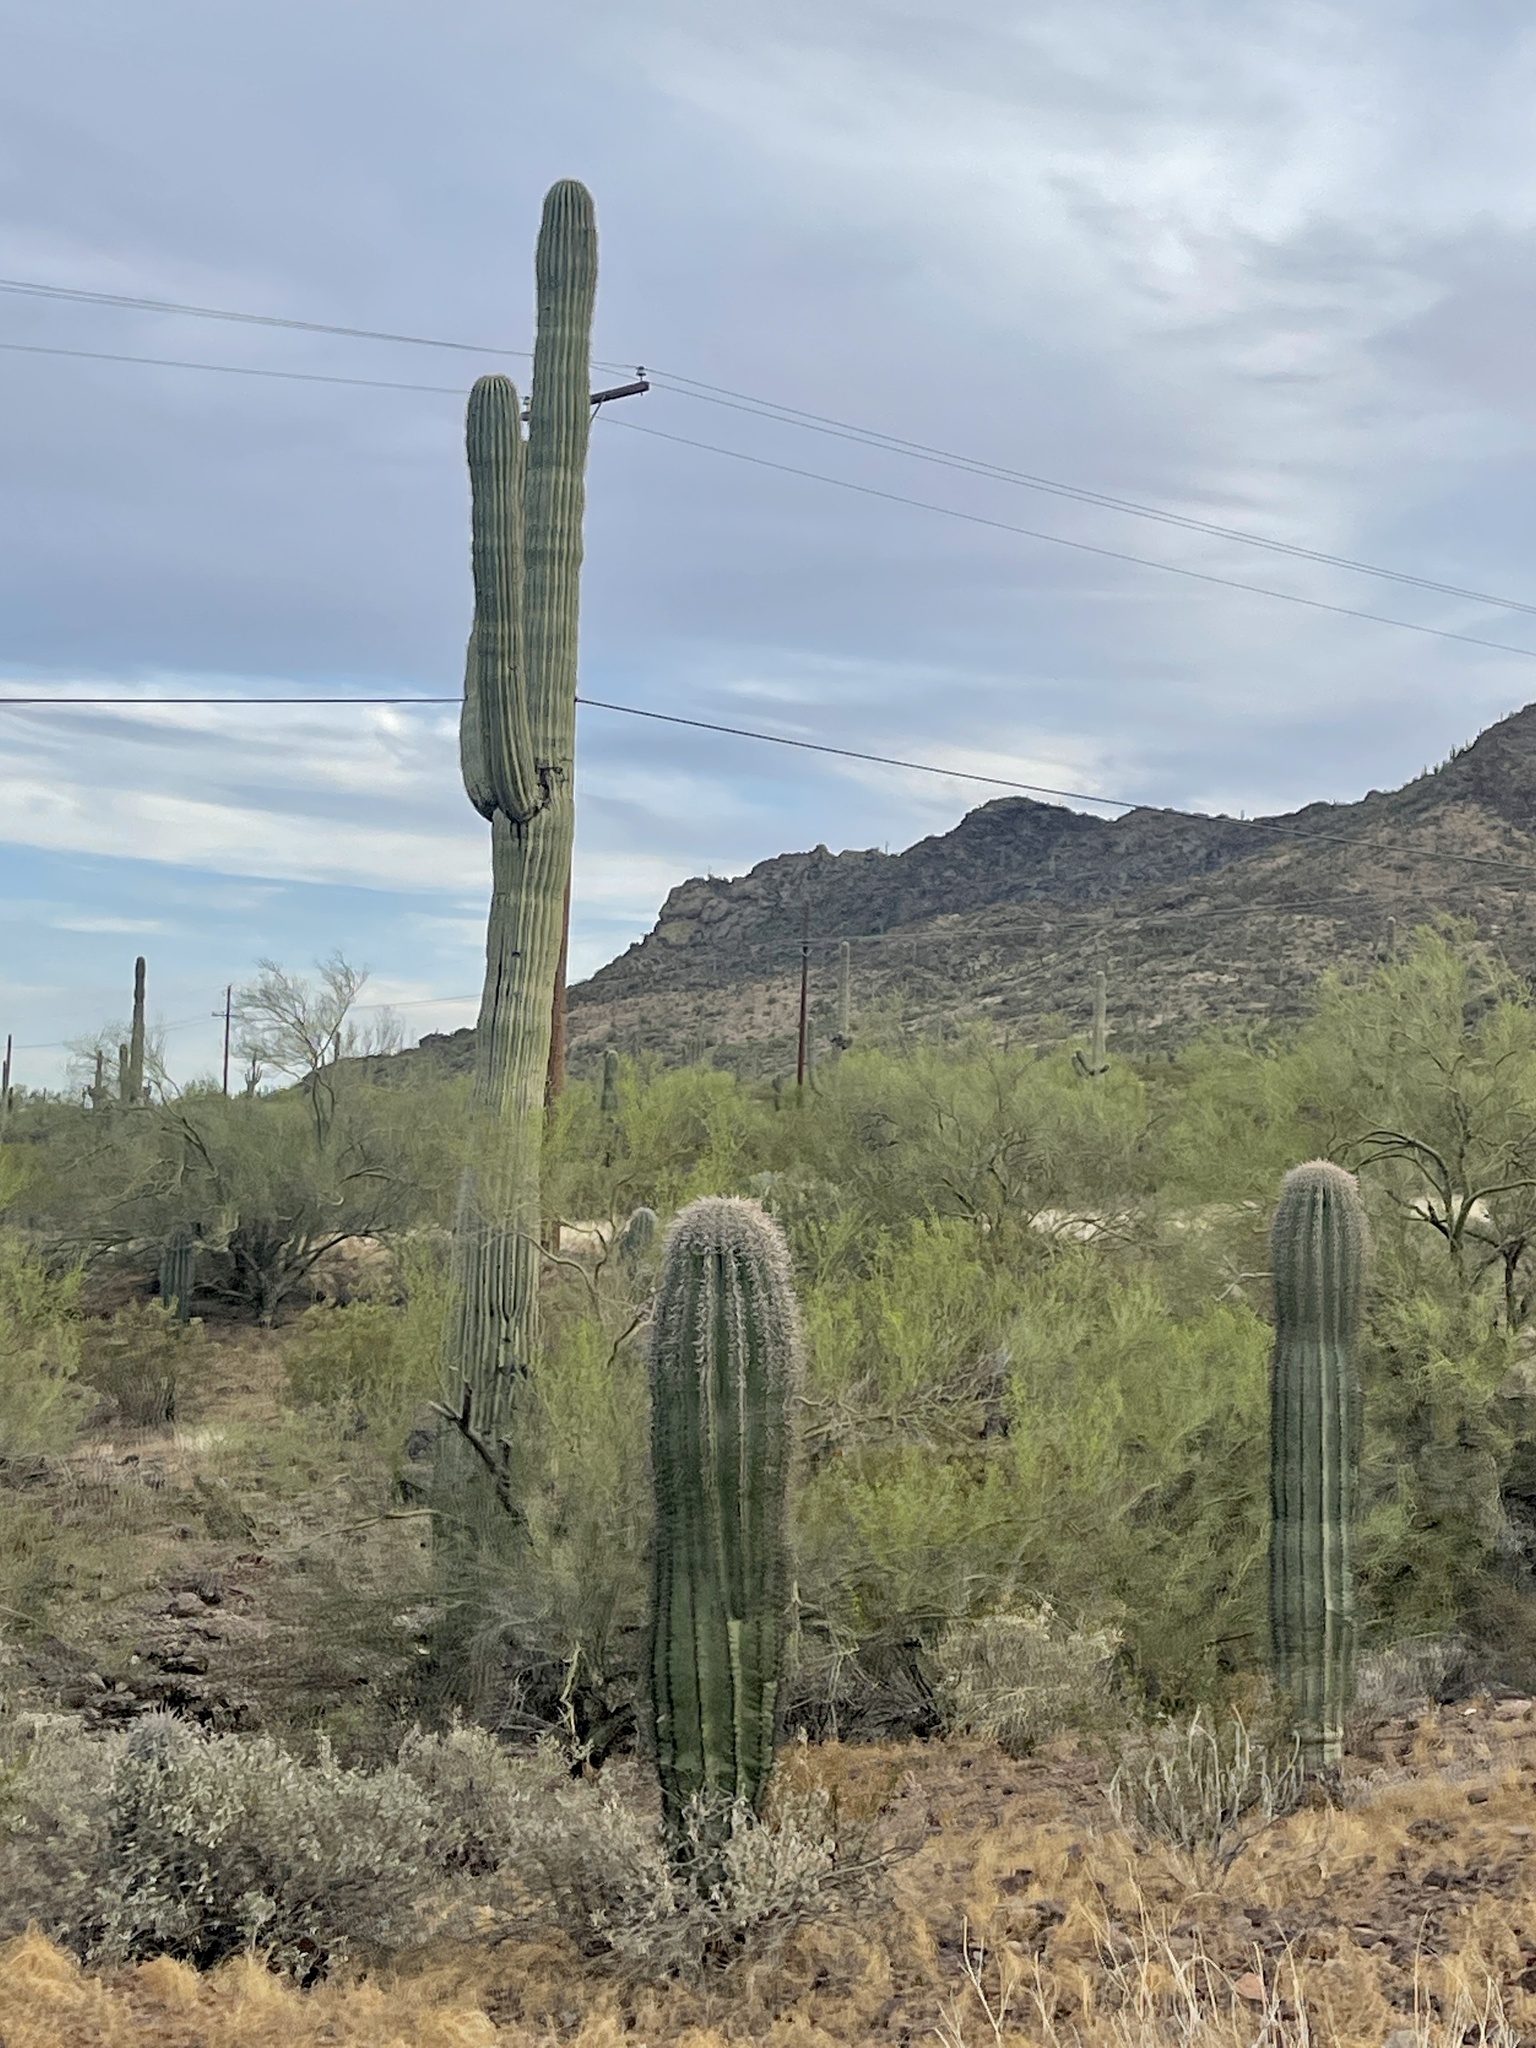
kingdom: Plantae
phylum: Tracheophyta
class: Magnoliopsida
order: Caryophyllales
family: Cactaceae
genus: Carnegiea
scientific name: Carnegiea gigantea
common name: Saguaro
